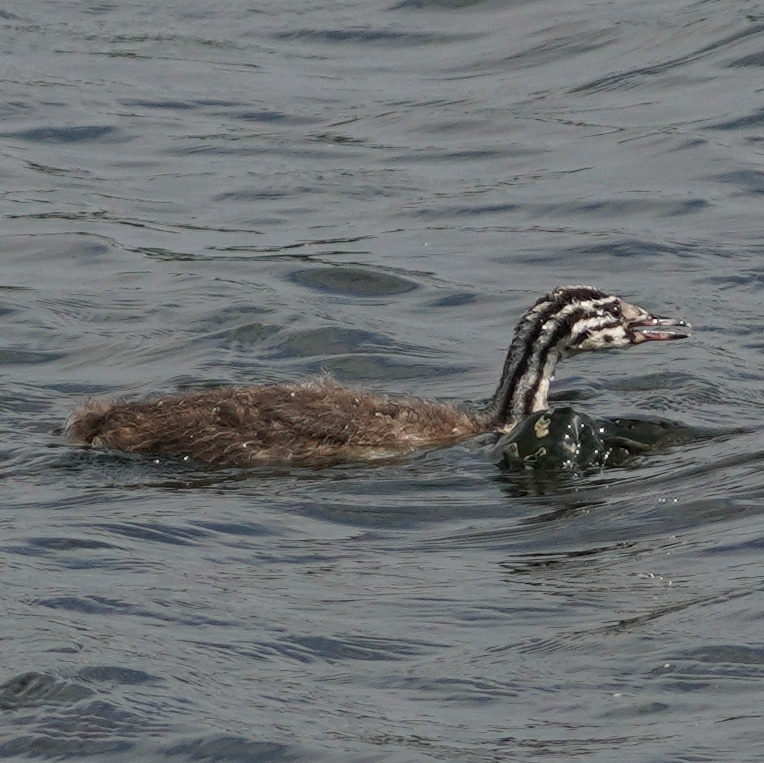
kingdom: Animalia
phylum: Chordata
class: Aves
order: Podicipediformes
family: Podicipedidae
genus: Podiceps
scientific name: Podiceps cristatus
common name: Great crested grebe
